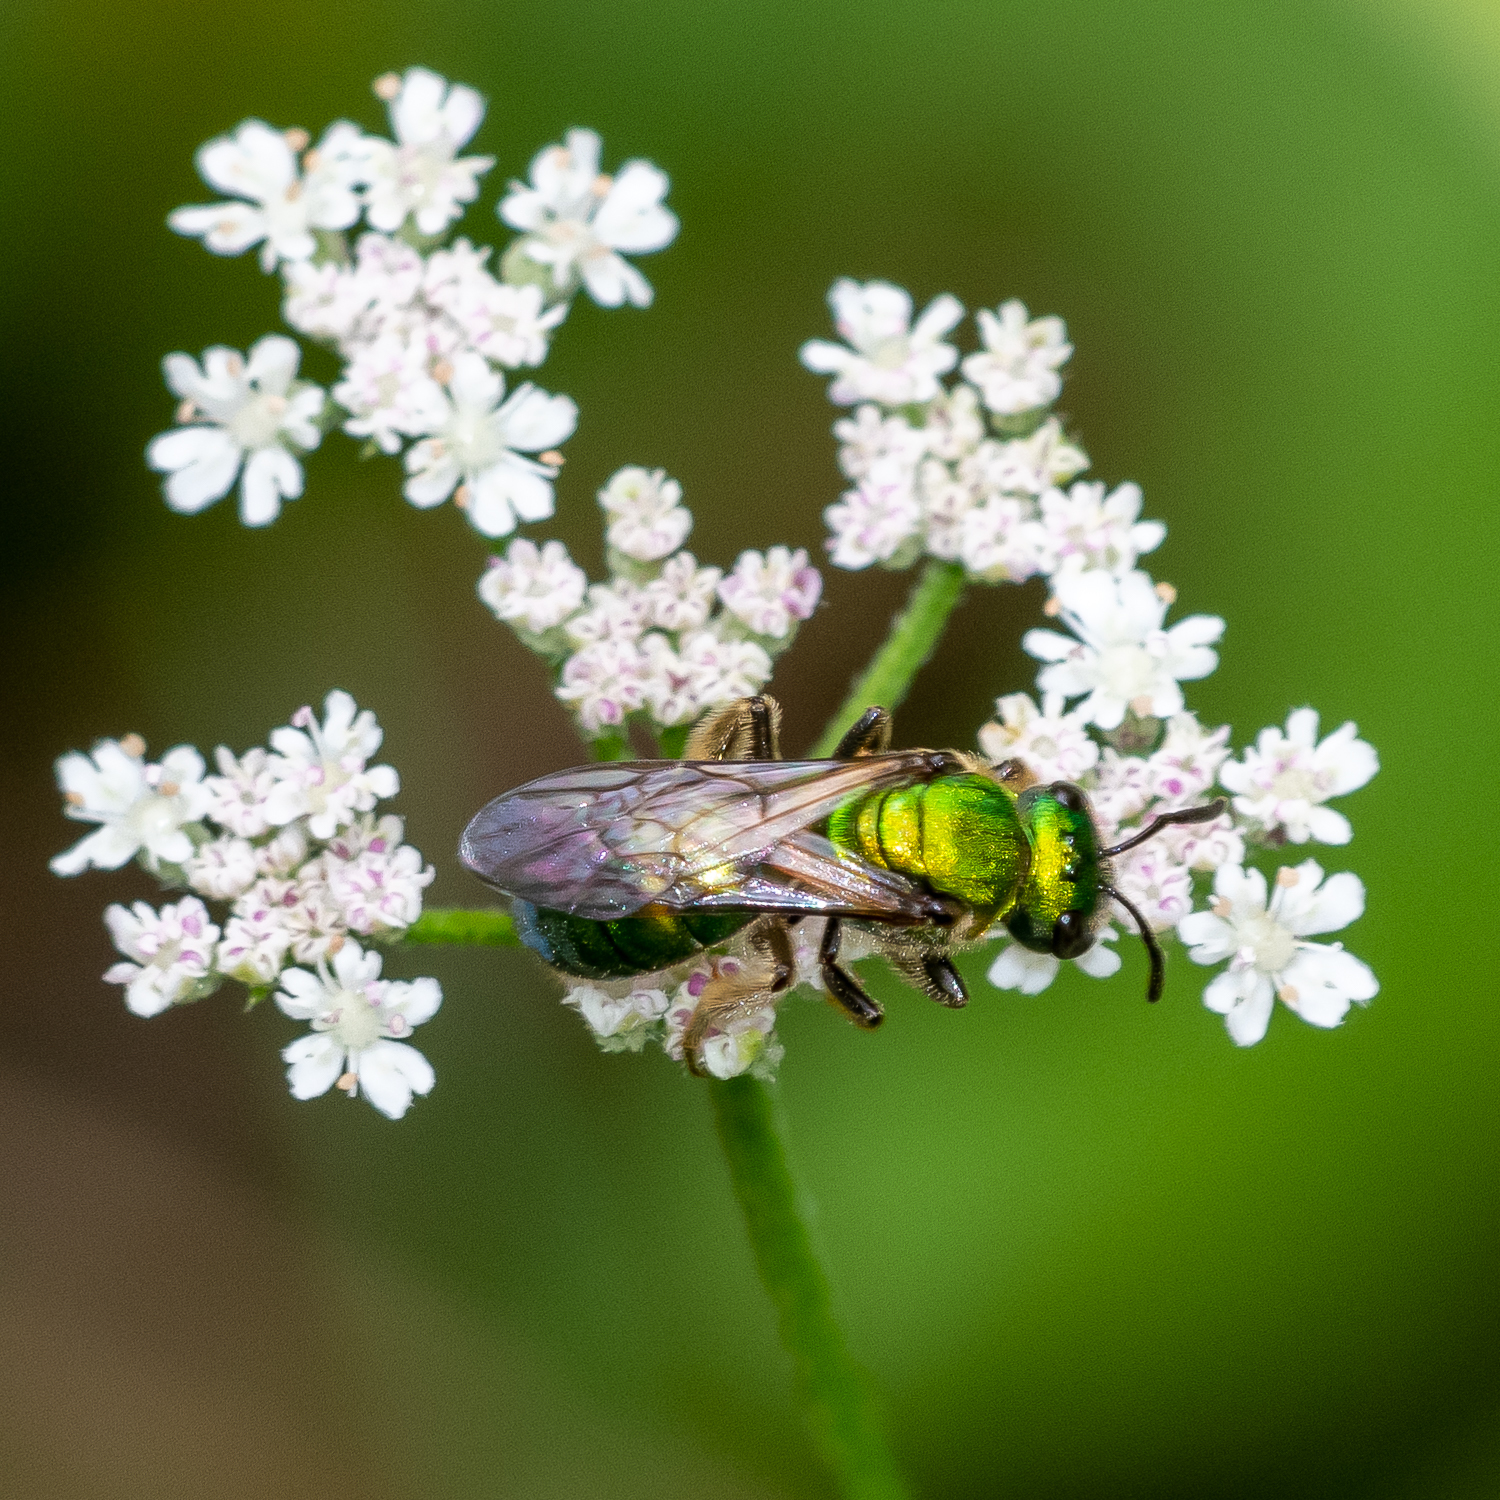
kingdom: Animalia
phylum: Arthropoda
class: Insecta
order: Hymenoptera
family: Halictidae
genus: Augochlora
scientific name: Augochlora pura
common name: Pure green sweat bee
